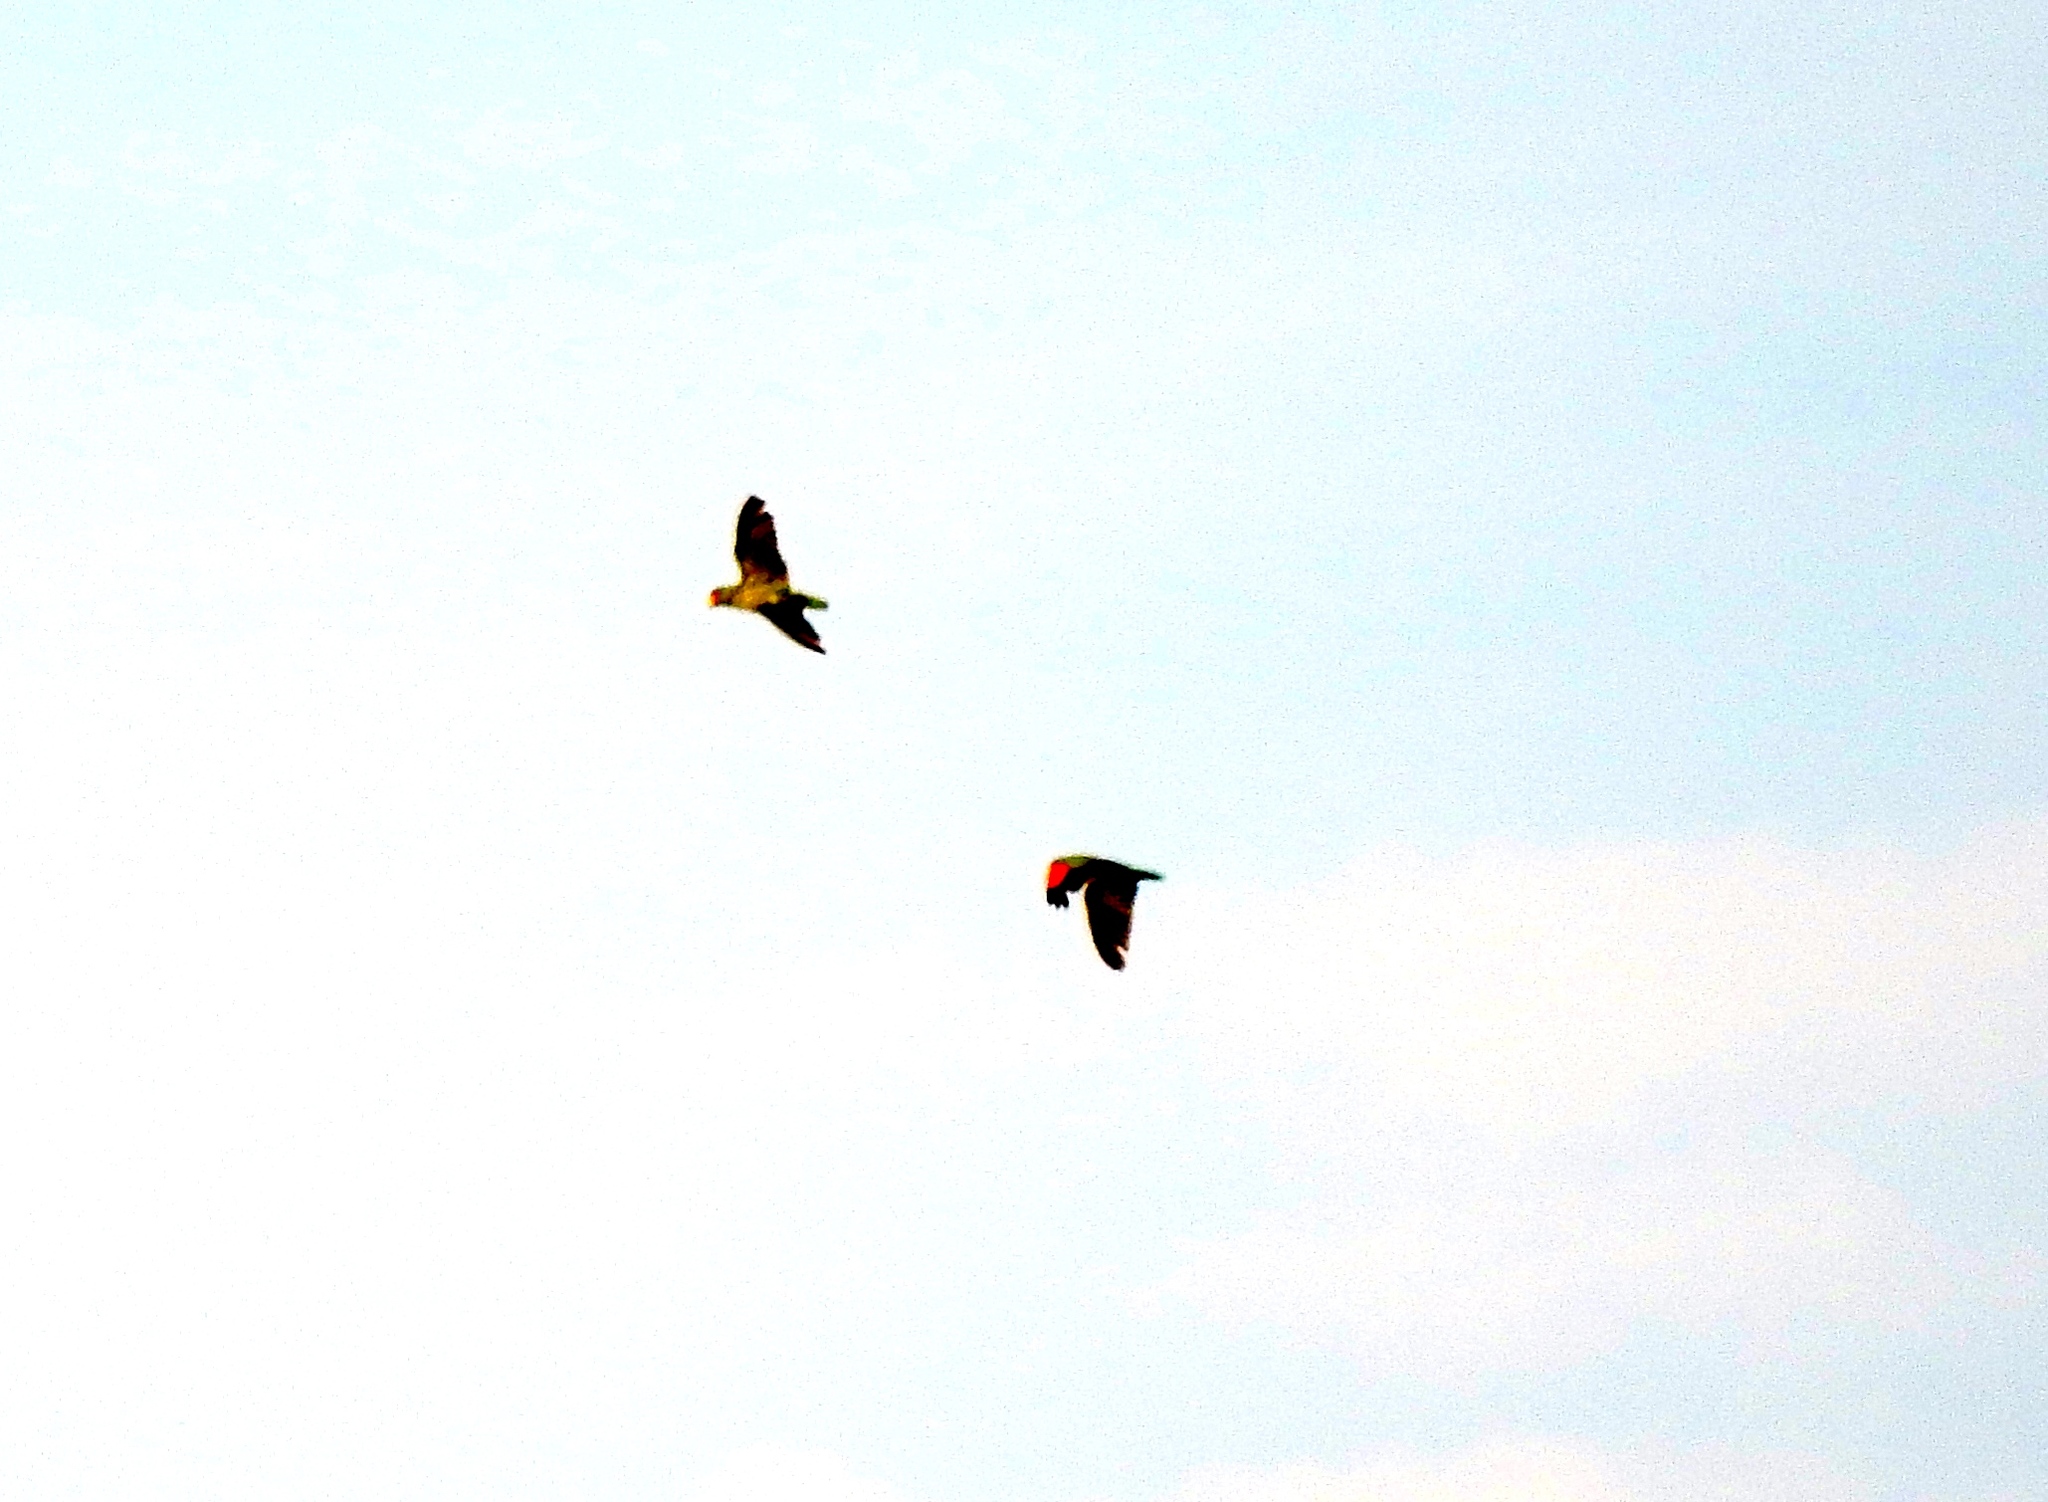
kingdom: Animalia
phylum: Chordata
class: Aves
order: Psittaciformes
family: Psittacidae
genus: Amazona
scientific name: Amazona albifrons
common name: White-fronted amazon
